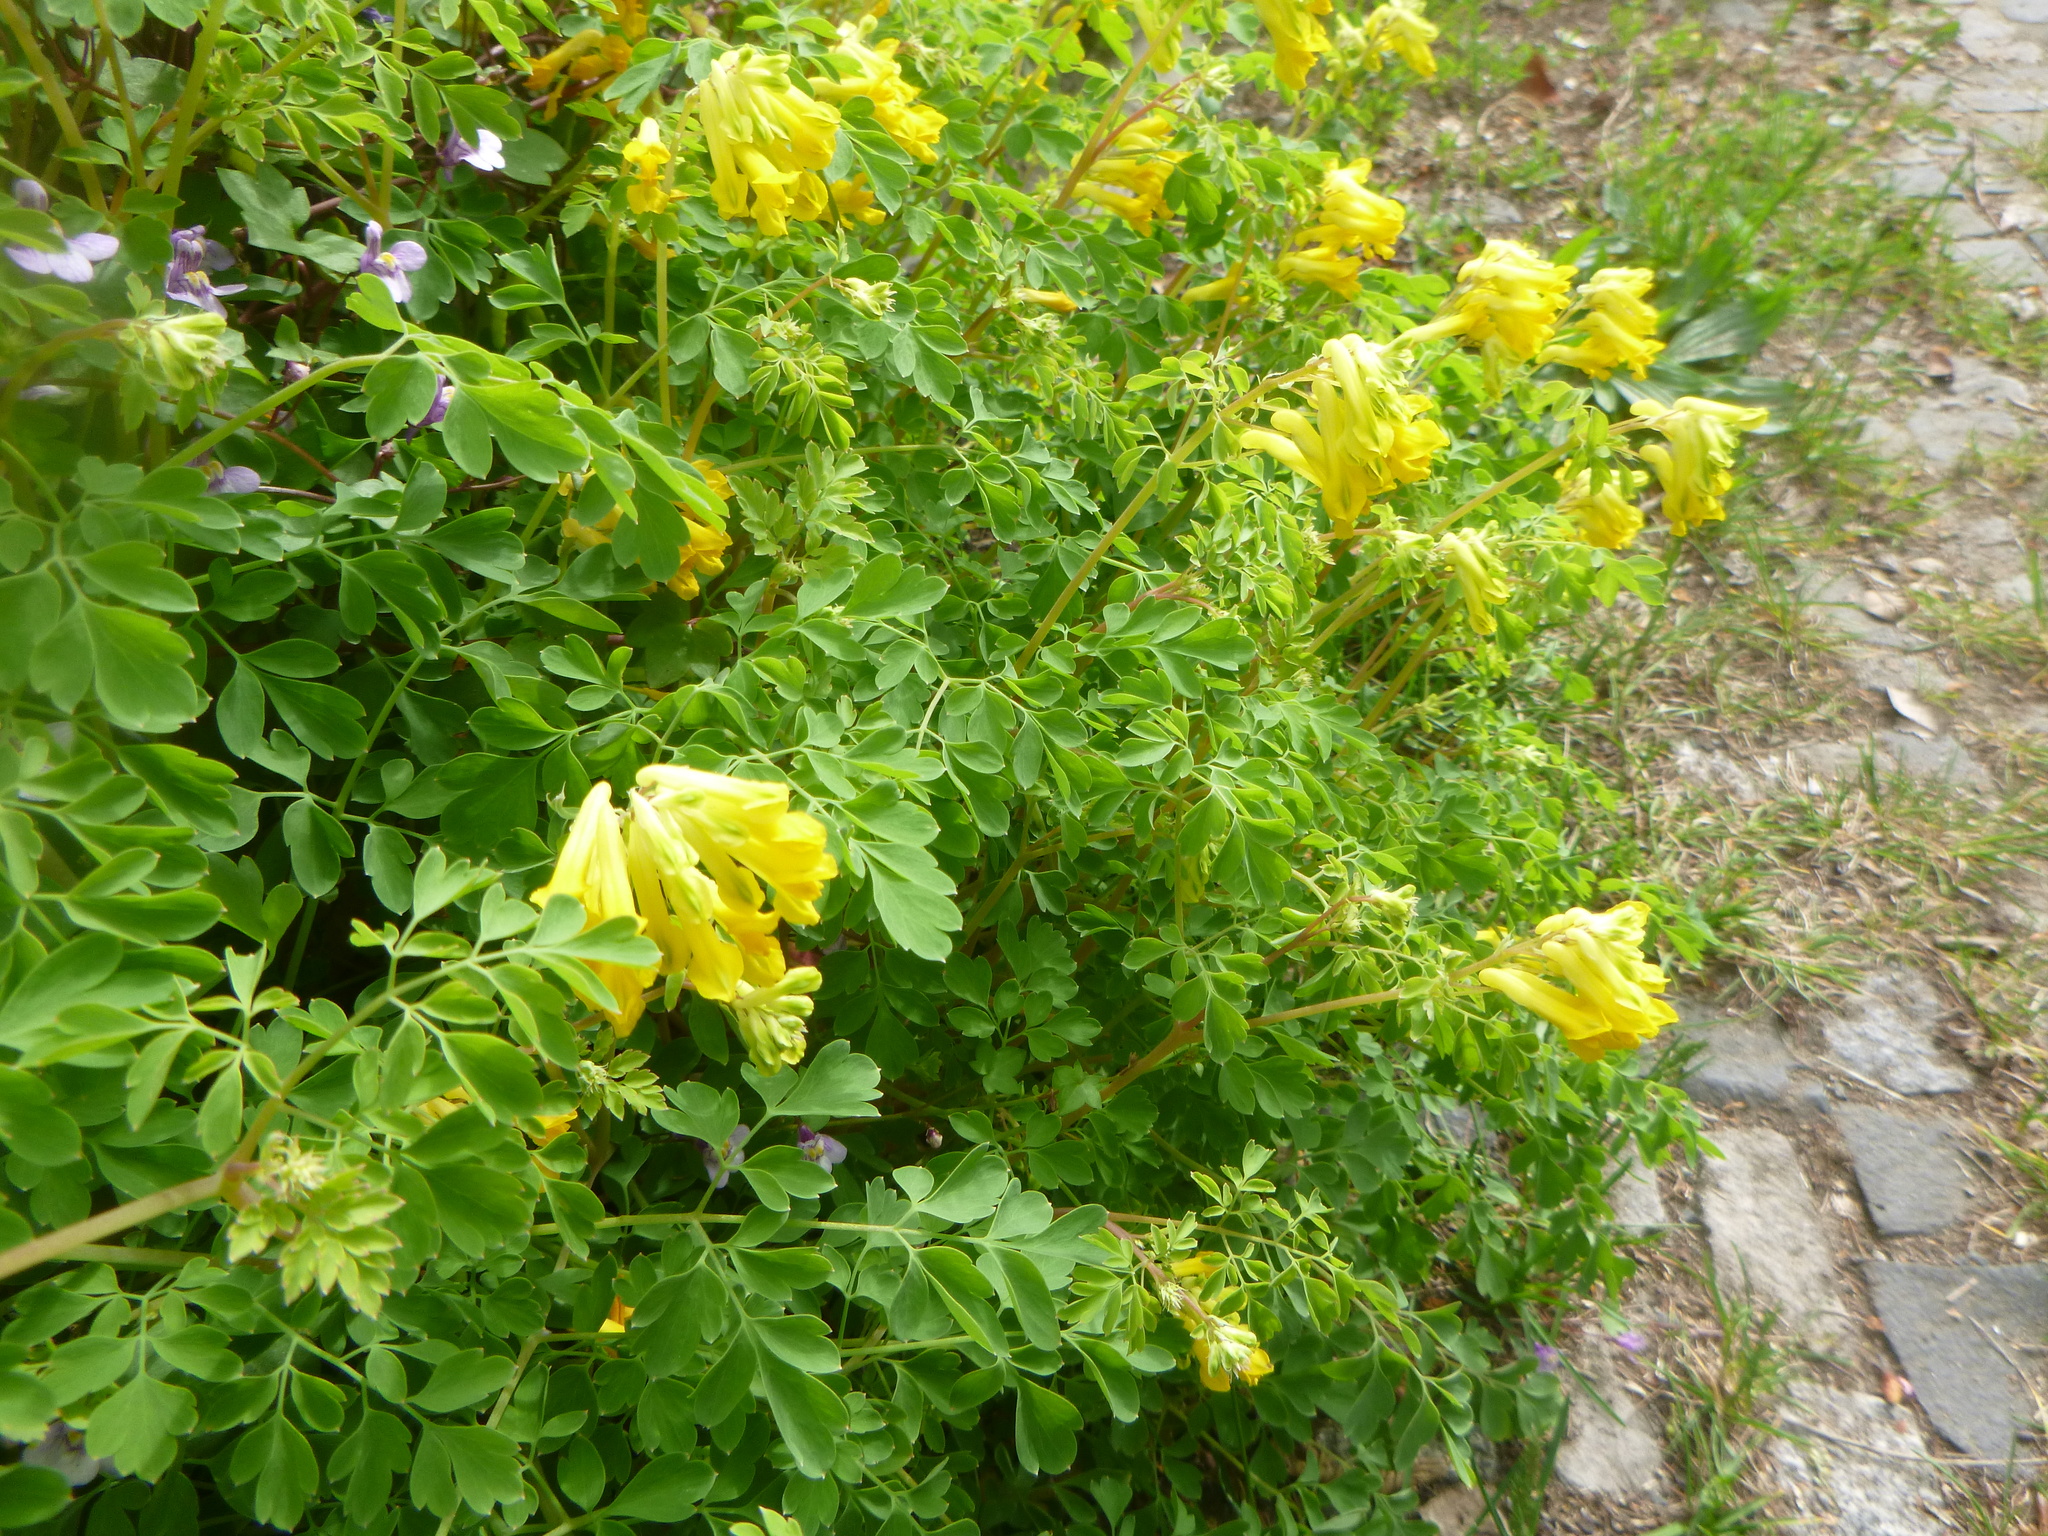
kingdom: Plantae
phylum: Tracheophyta
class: Magnoliopsida
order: Ranunculales
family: Papaveraceae
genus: Pseudofumaria
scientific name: Pseudofumaria lutea
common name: Yellow corydalis
